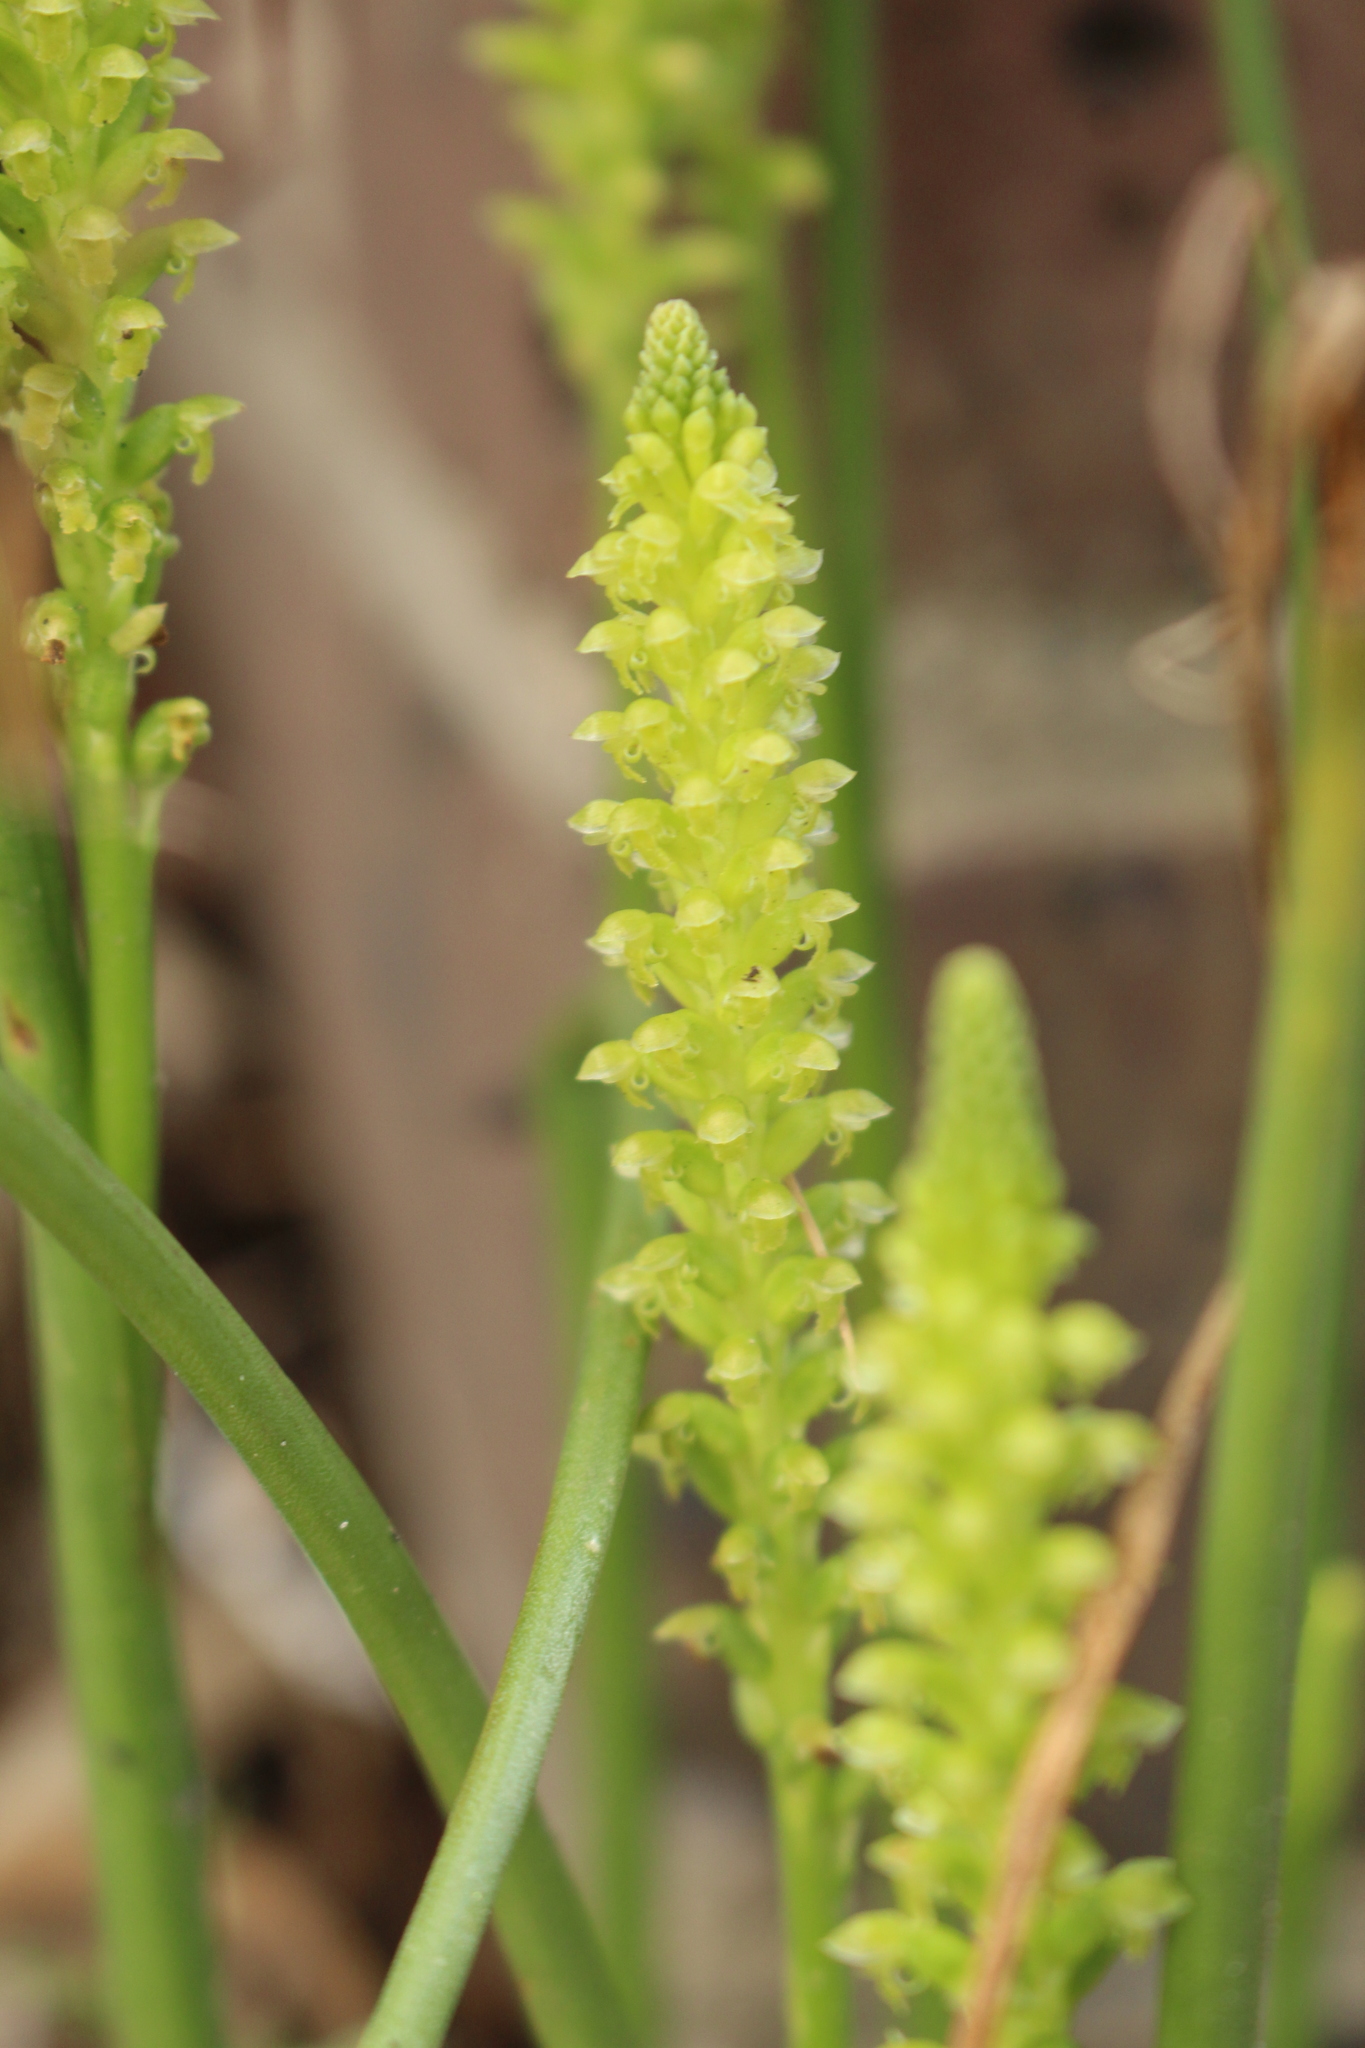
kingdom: Plantae
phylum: Tracheophyta
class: Liliopsida
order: Asparagales
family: Orchidaceae
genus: Microtis
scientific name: Microtis media
